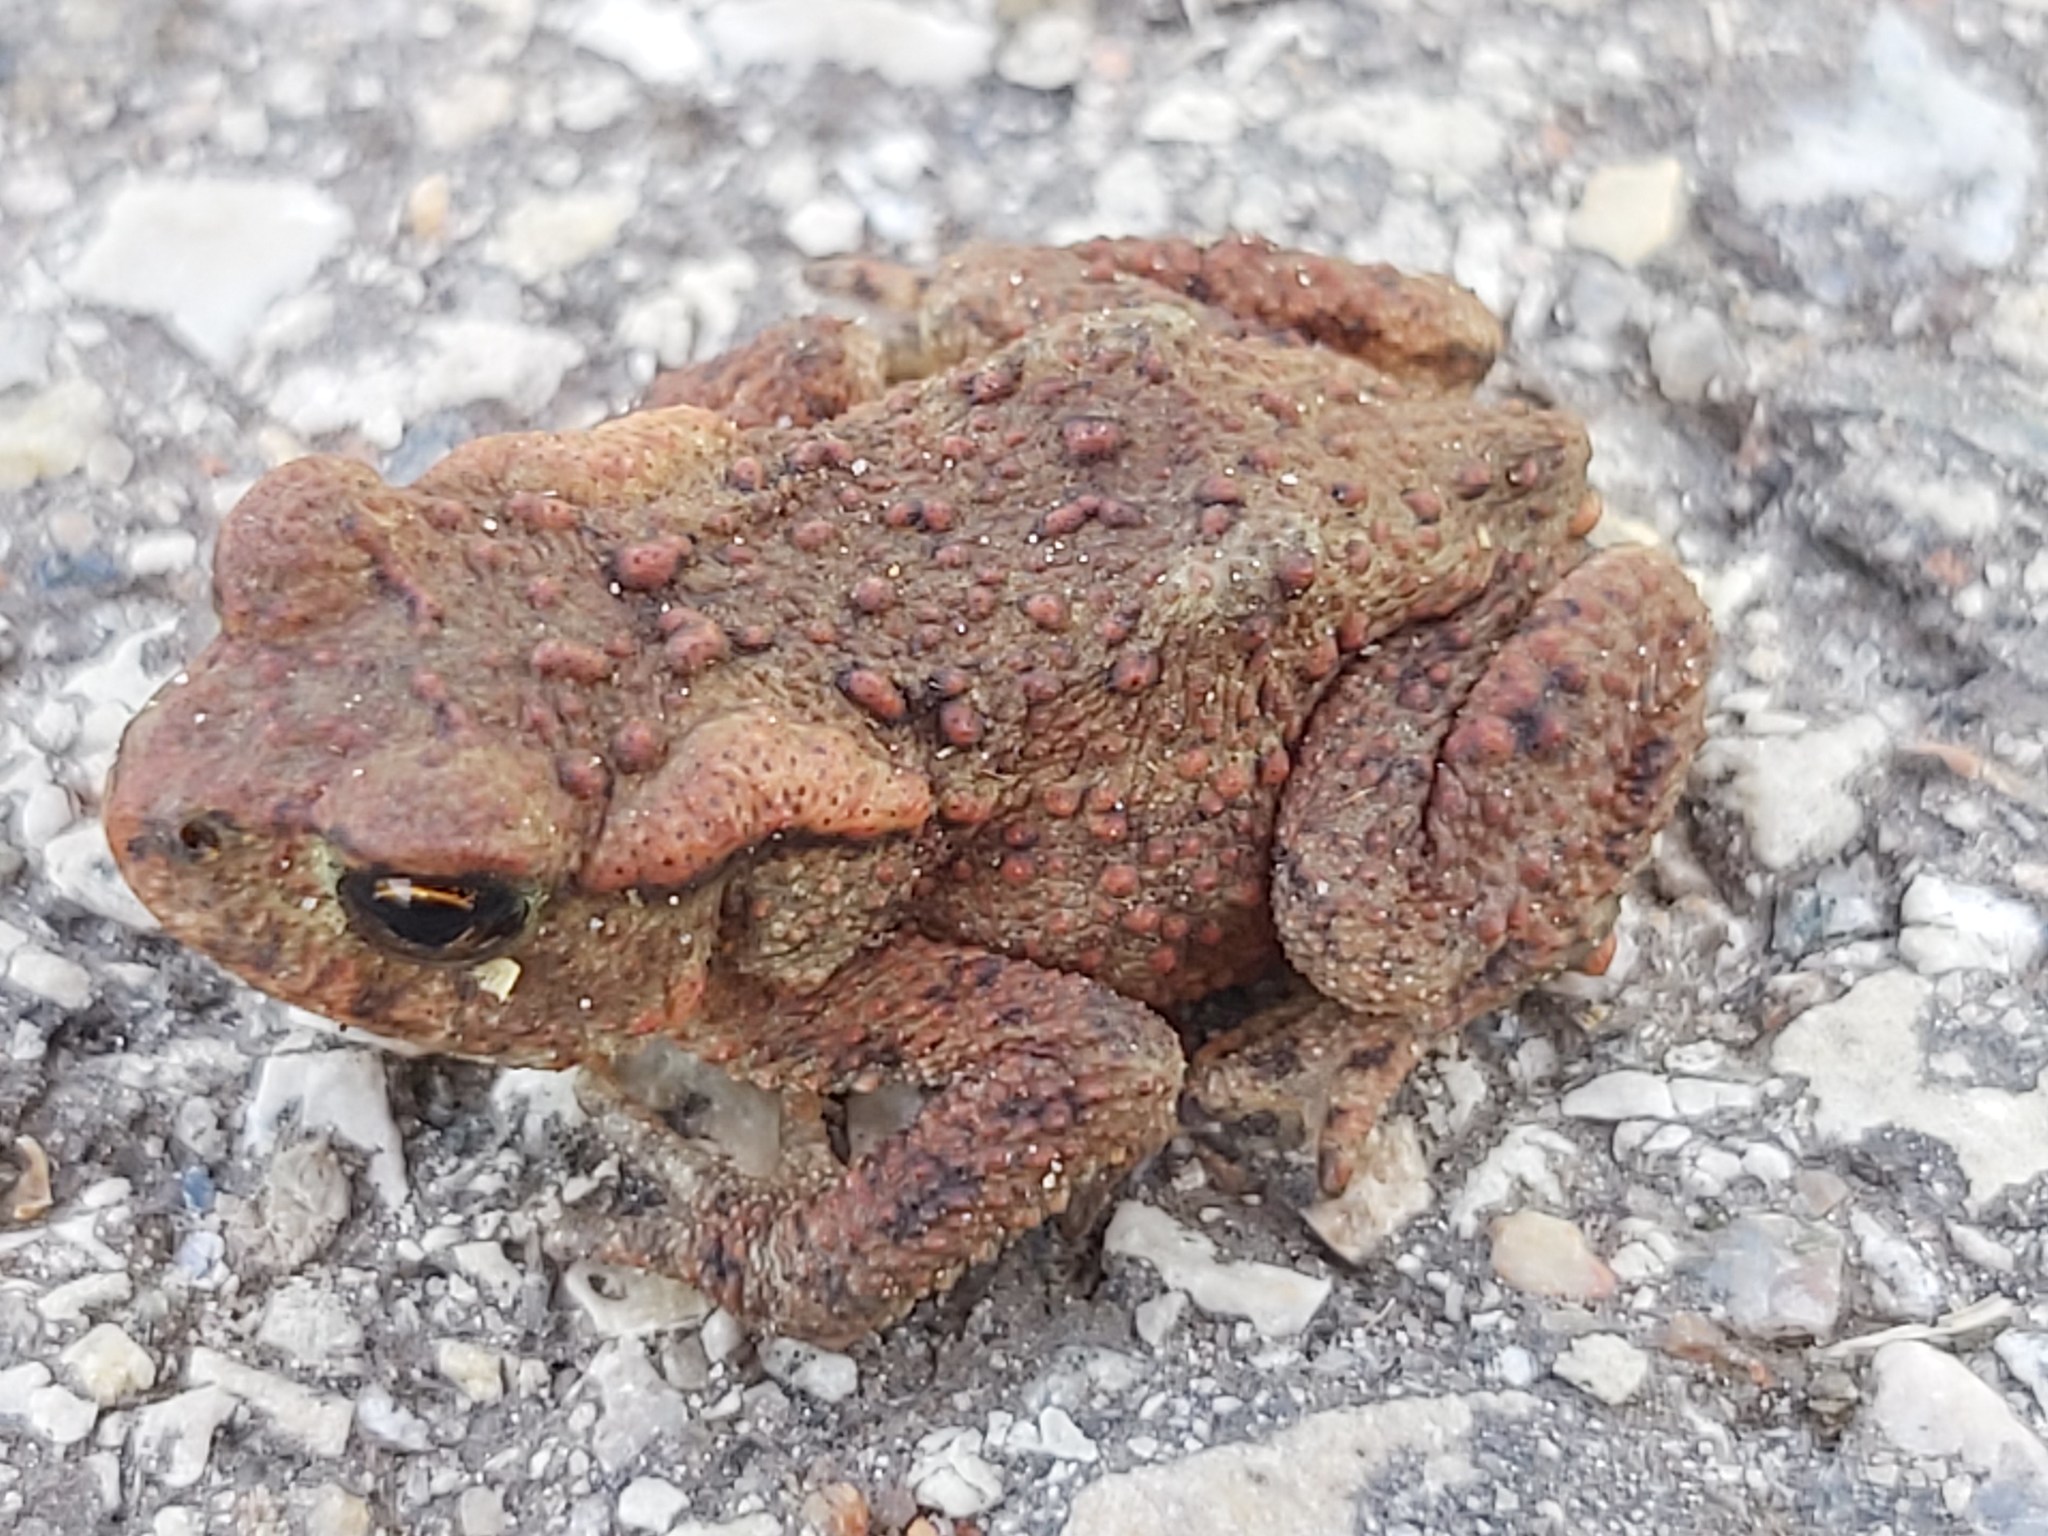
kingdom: Animalia
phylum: Chordata
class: Amphibia
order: Anura
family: Bufonidae
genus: Bufo
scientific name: Bufo bufo
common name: Common toad
